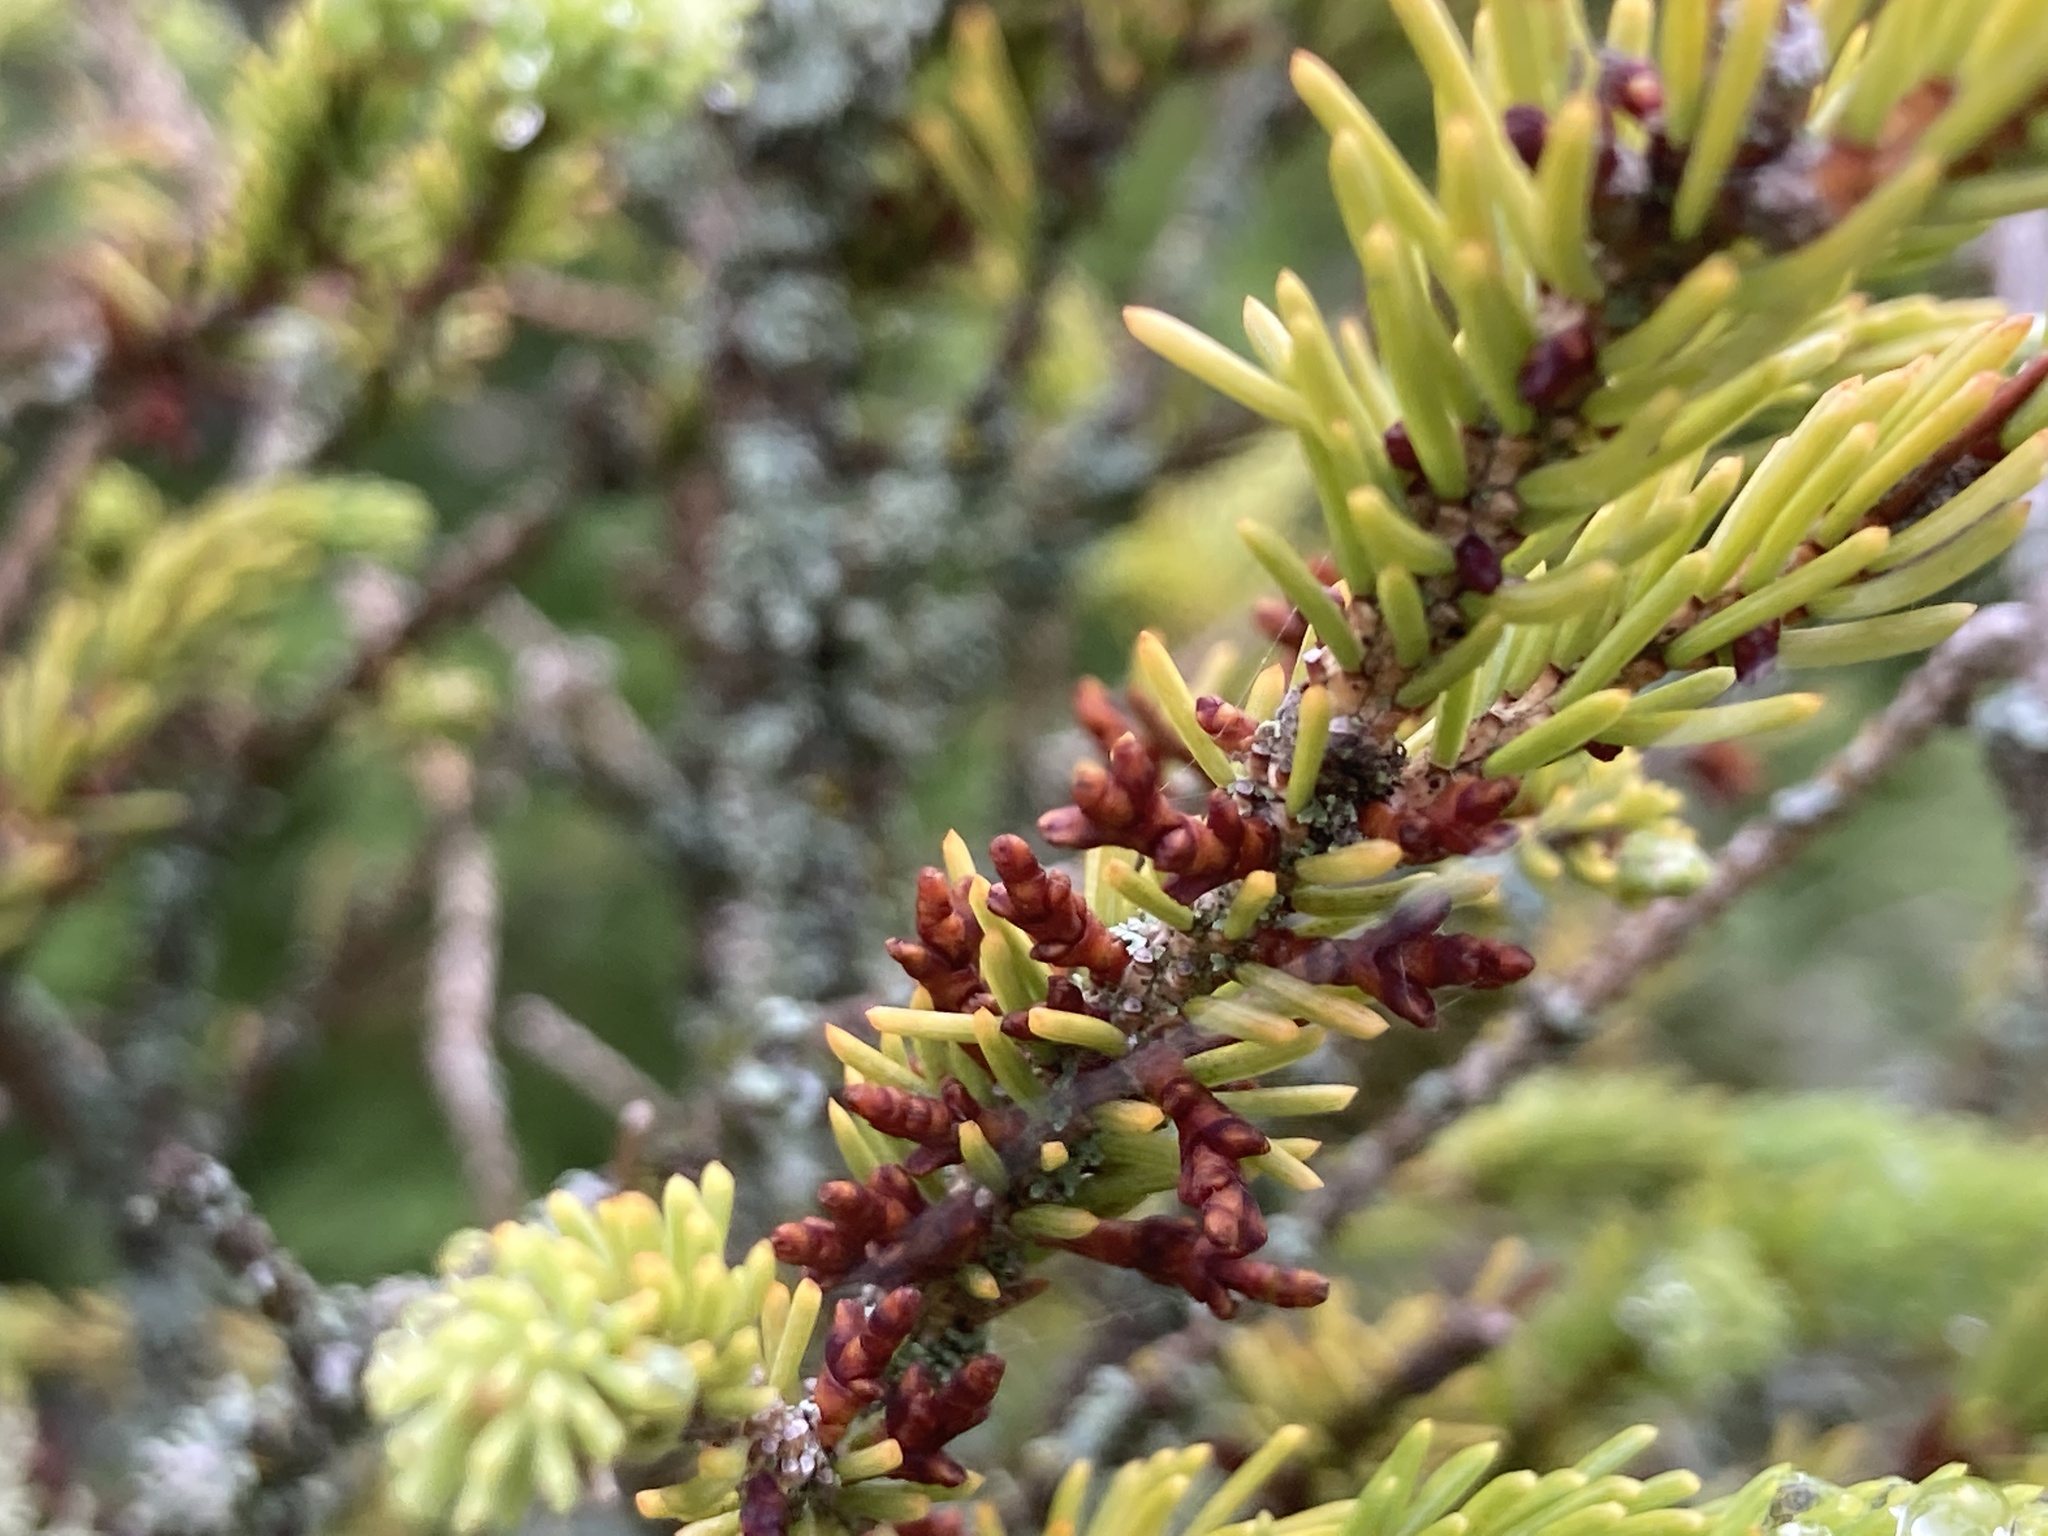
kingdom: Plantae
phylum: Tracheophyta
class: Magnoliopsida
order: Santalales
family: Viscaceae
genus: Arceuthobium
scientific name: Arceuthobium pusillum
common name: Dwarf-mistletoe
